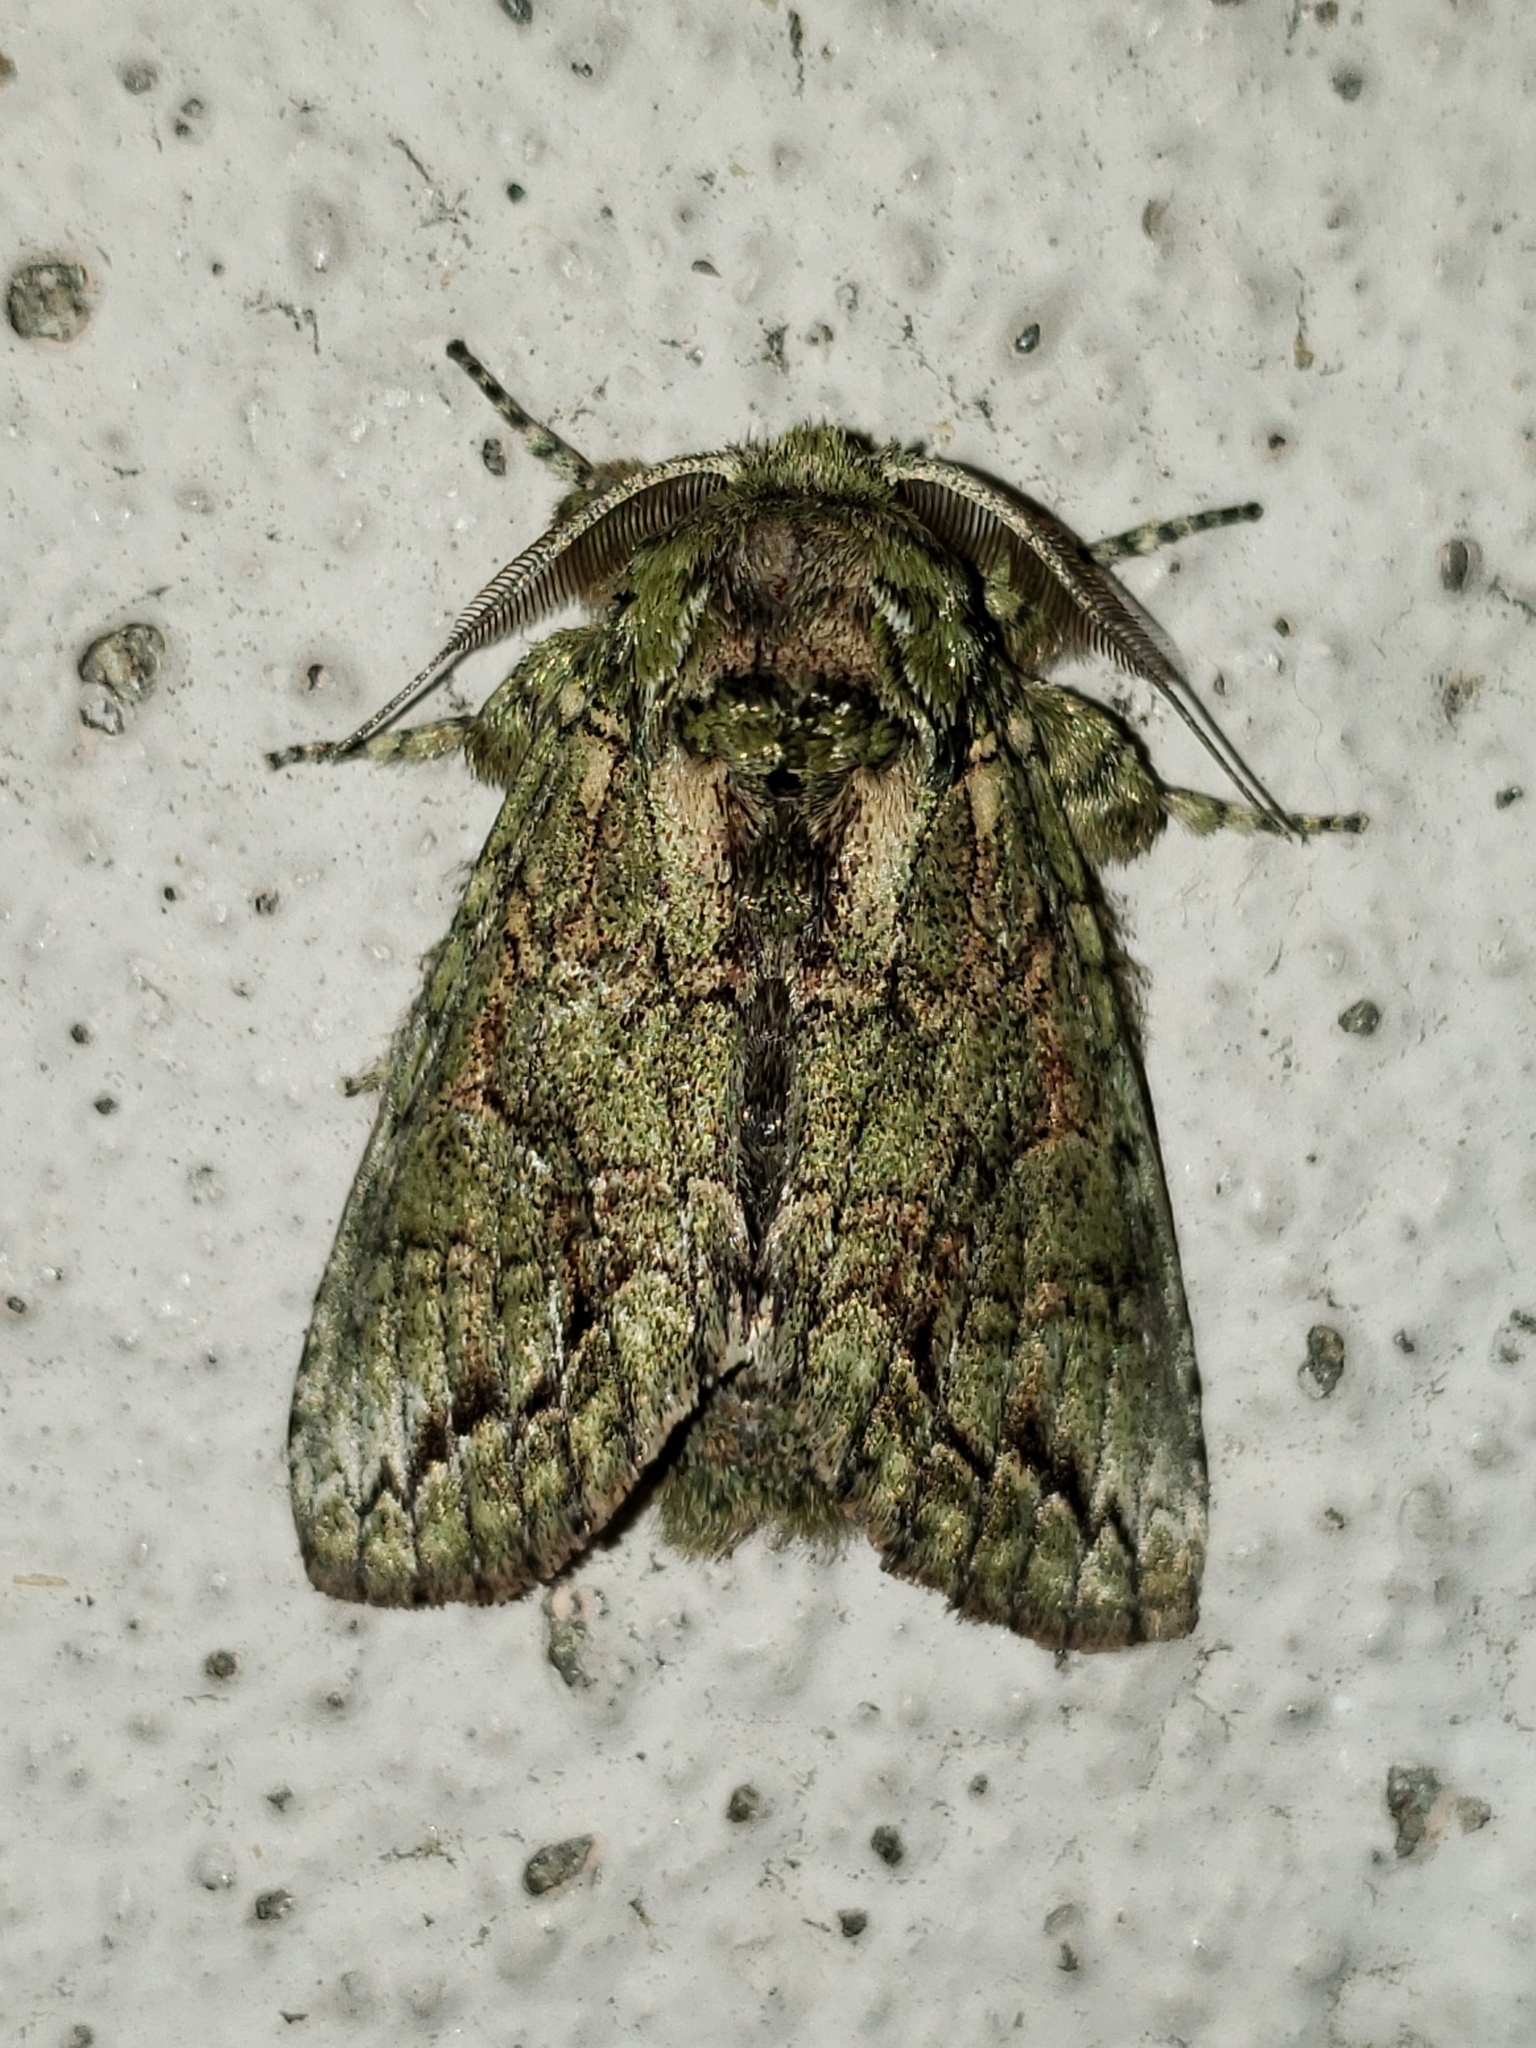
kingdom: Animalia
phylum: Arthropoda
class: Insecta
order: Lepidoptera
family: Notodontidae
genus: Heterocampa
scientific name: Heterocampa umbrata
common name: White-blotched heterocampa
